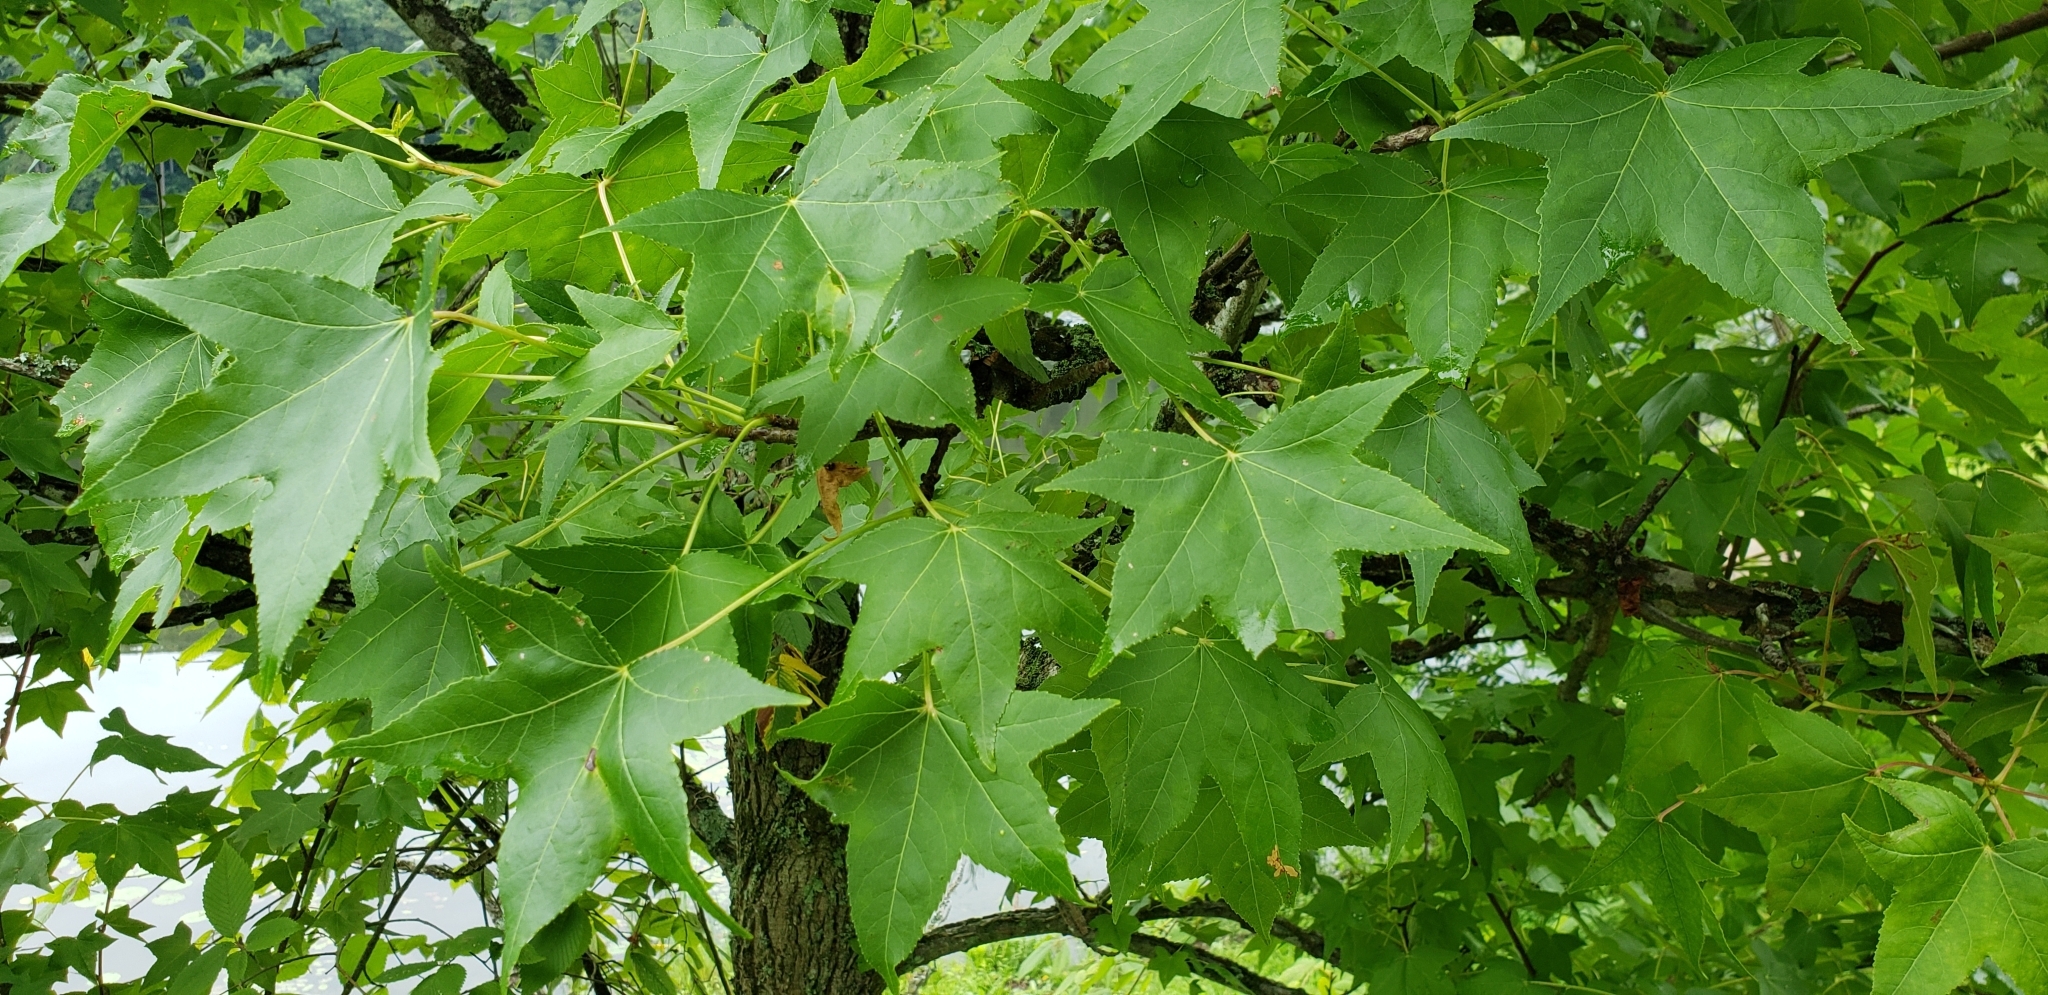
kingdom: Plantae
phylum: Tracheophyta
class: Magnoliopsida
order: Saxifragales
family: Altingiaceae
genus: Liquidambar
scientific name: Liquidambar styraciflua
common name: Sweet gum
